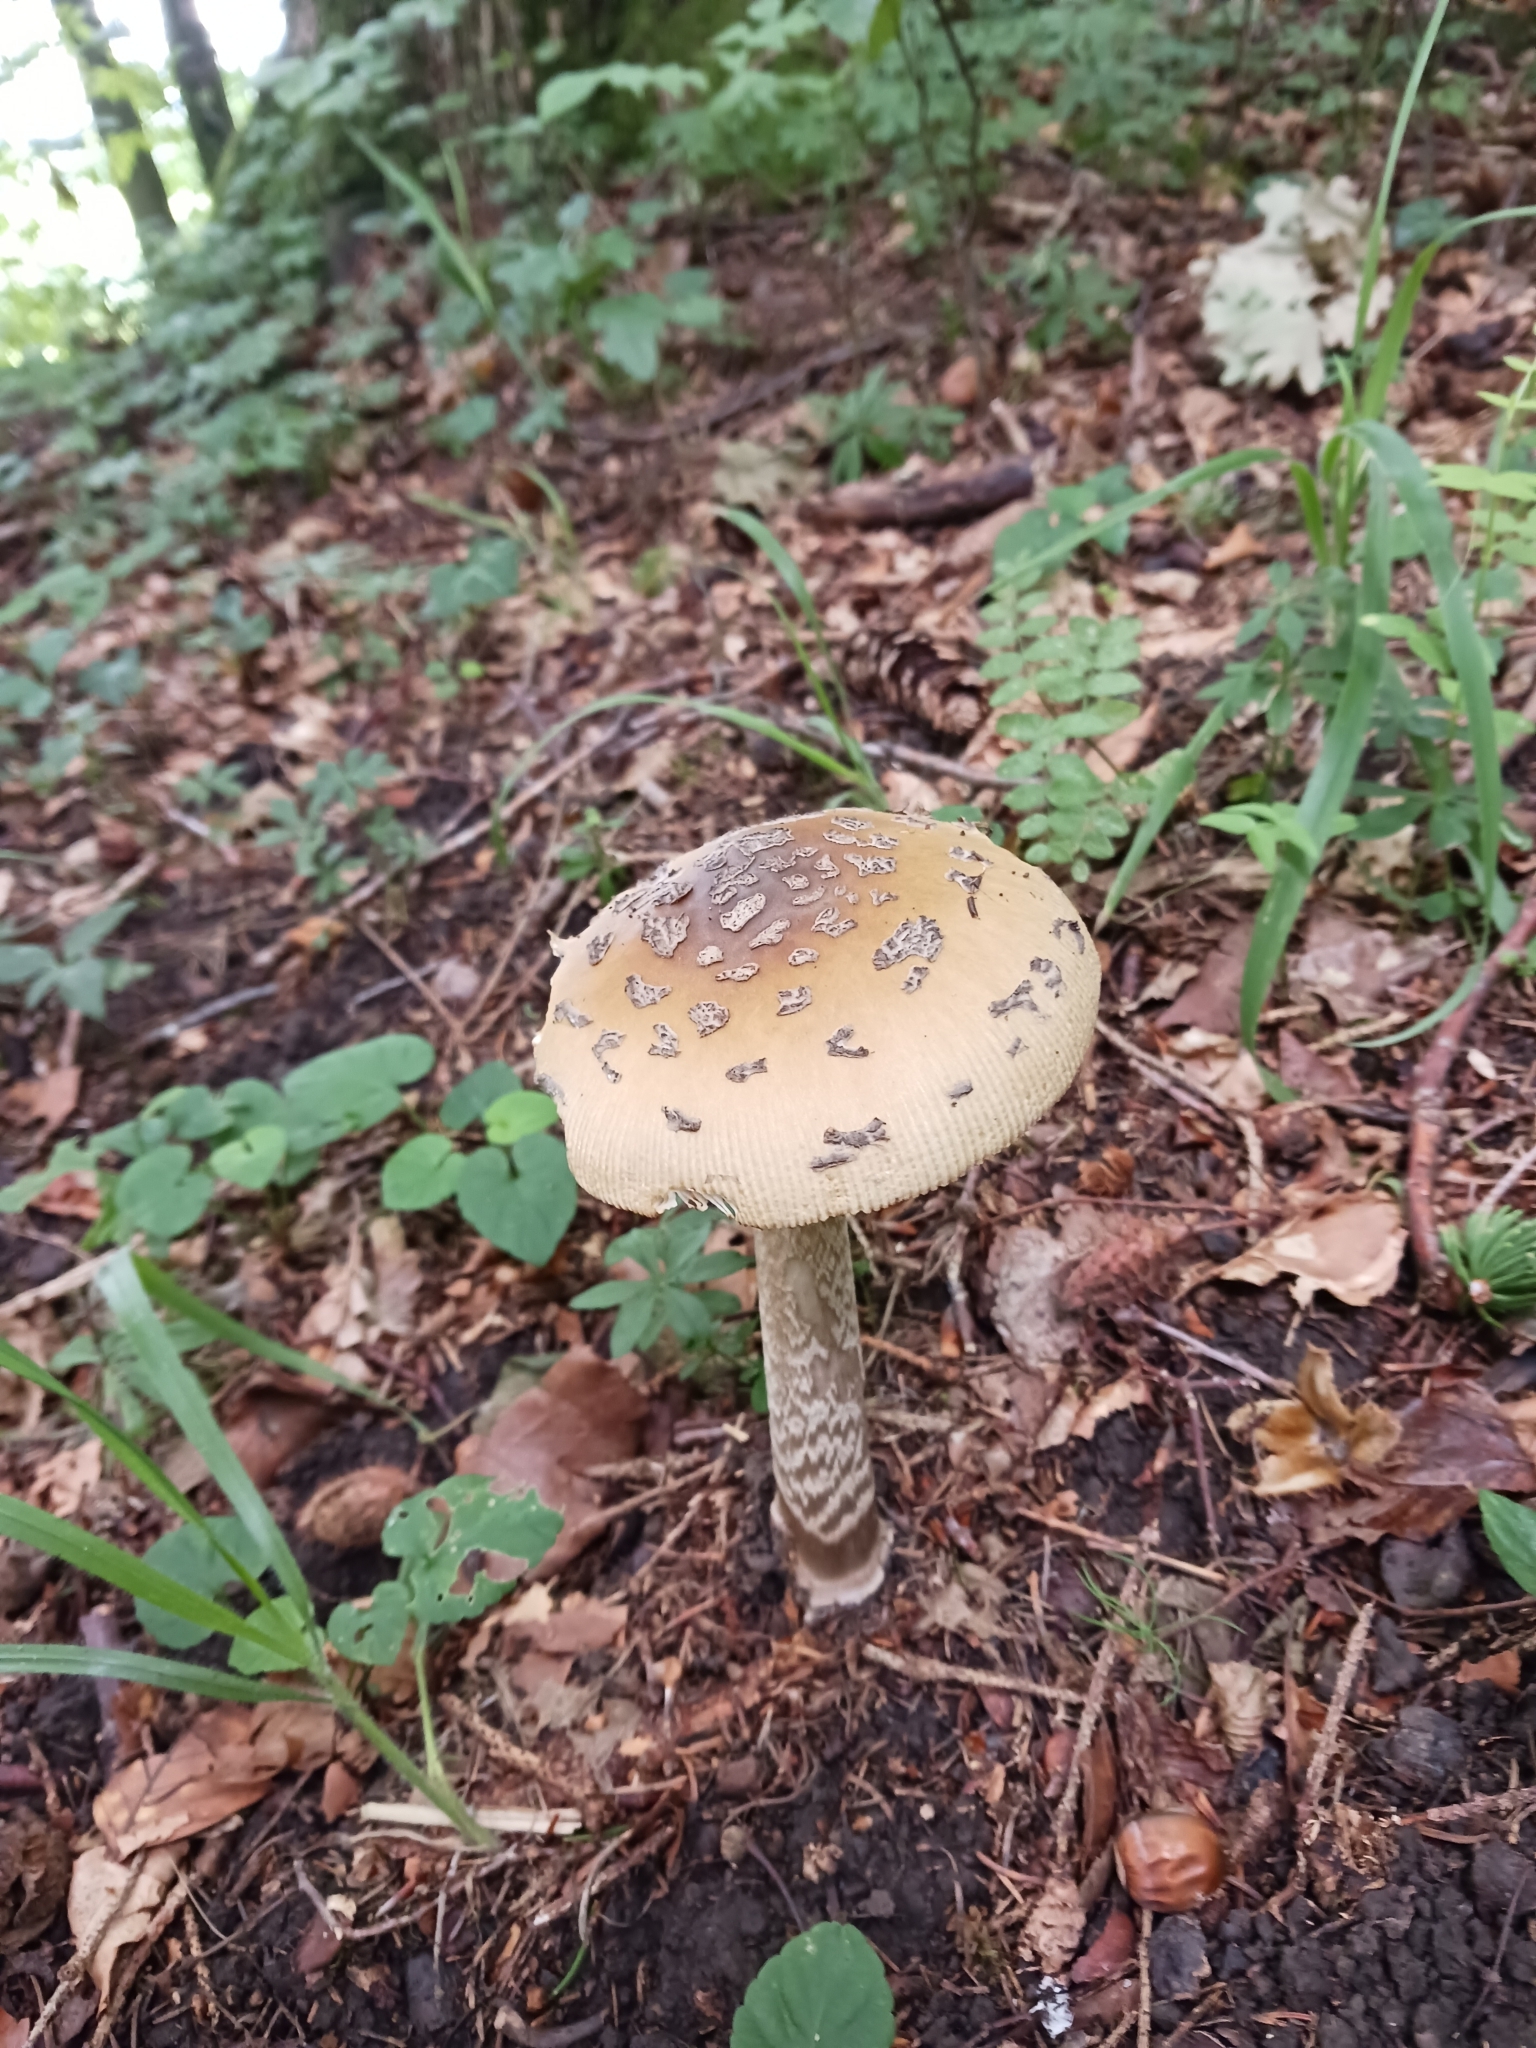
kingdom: Fungi
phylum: Basidiomycota
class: Agaricomycetes
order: Agaricales
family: Amanitaceae
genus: Amanita
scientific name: Amanita ceciliae
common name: Snakeskin grisette
